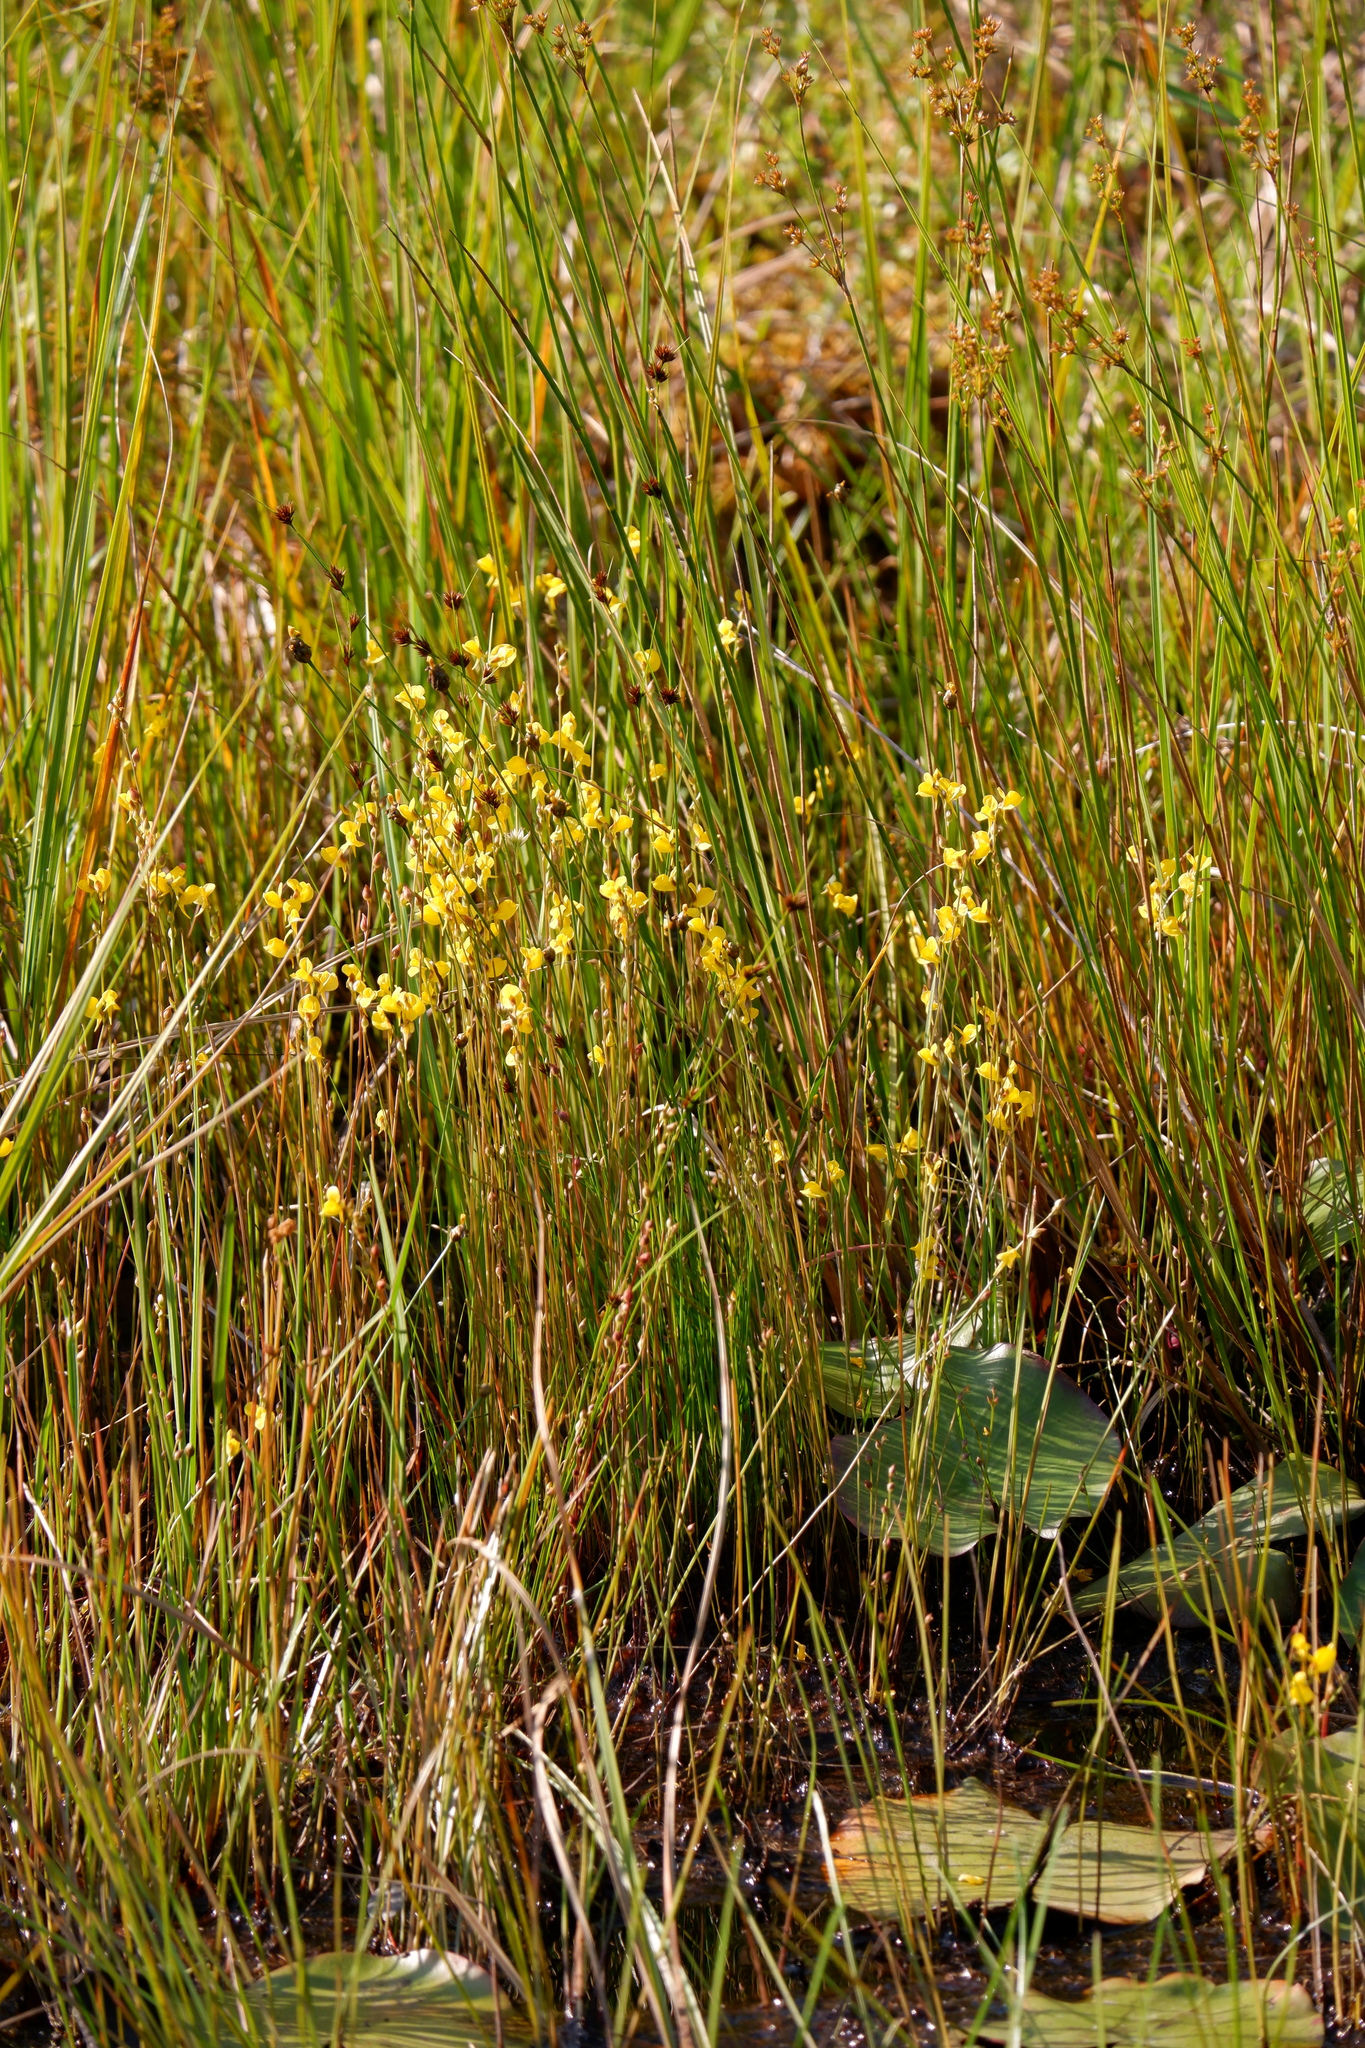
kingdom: Plantae
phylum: Tracheophyta
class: Magnoliopsida
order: Lamiales
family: Lentibulariaceae
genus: Utricularia
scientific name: Utricularia juncea
